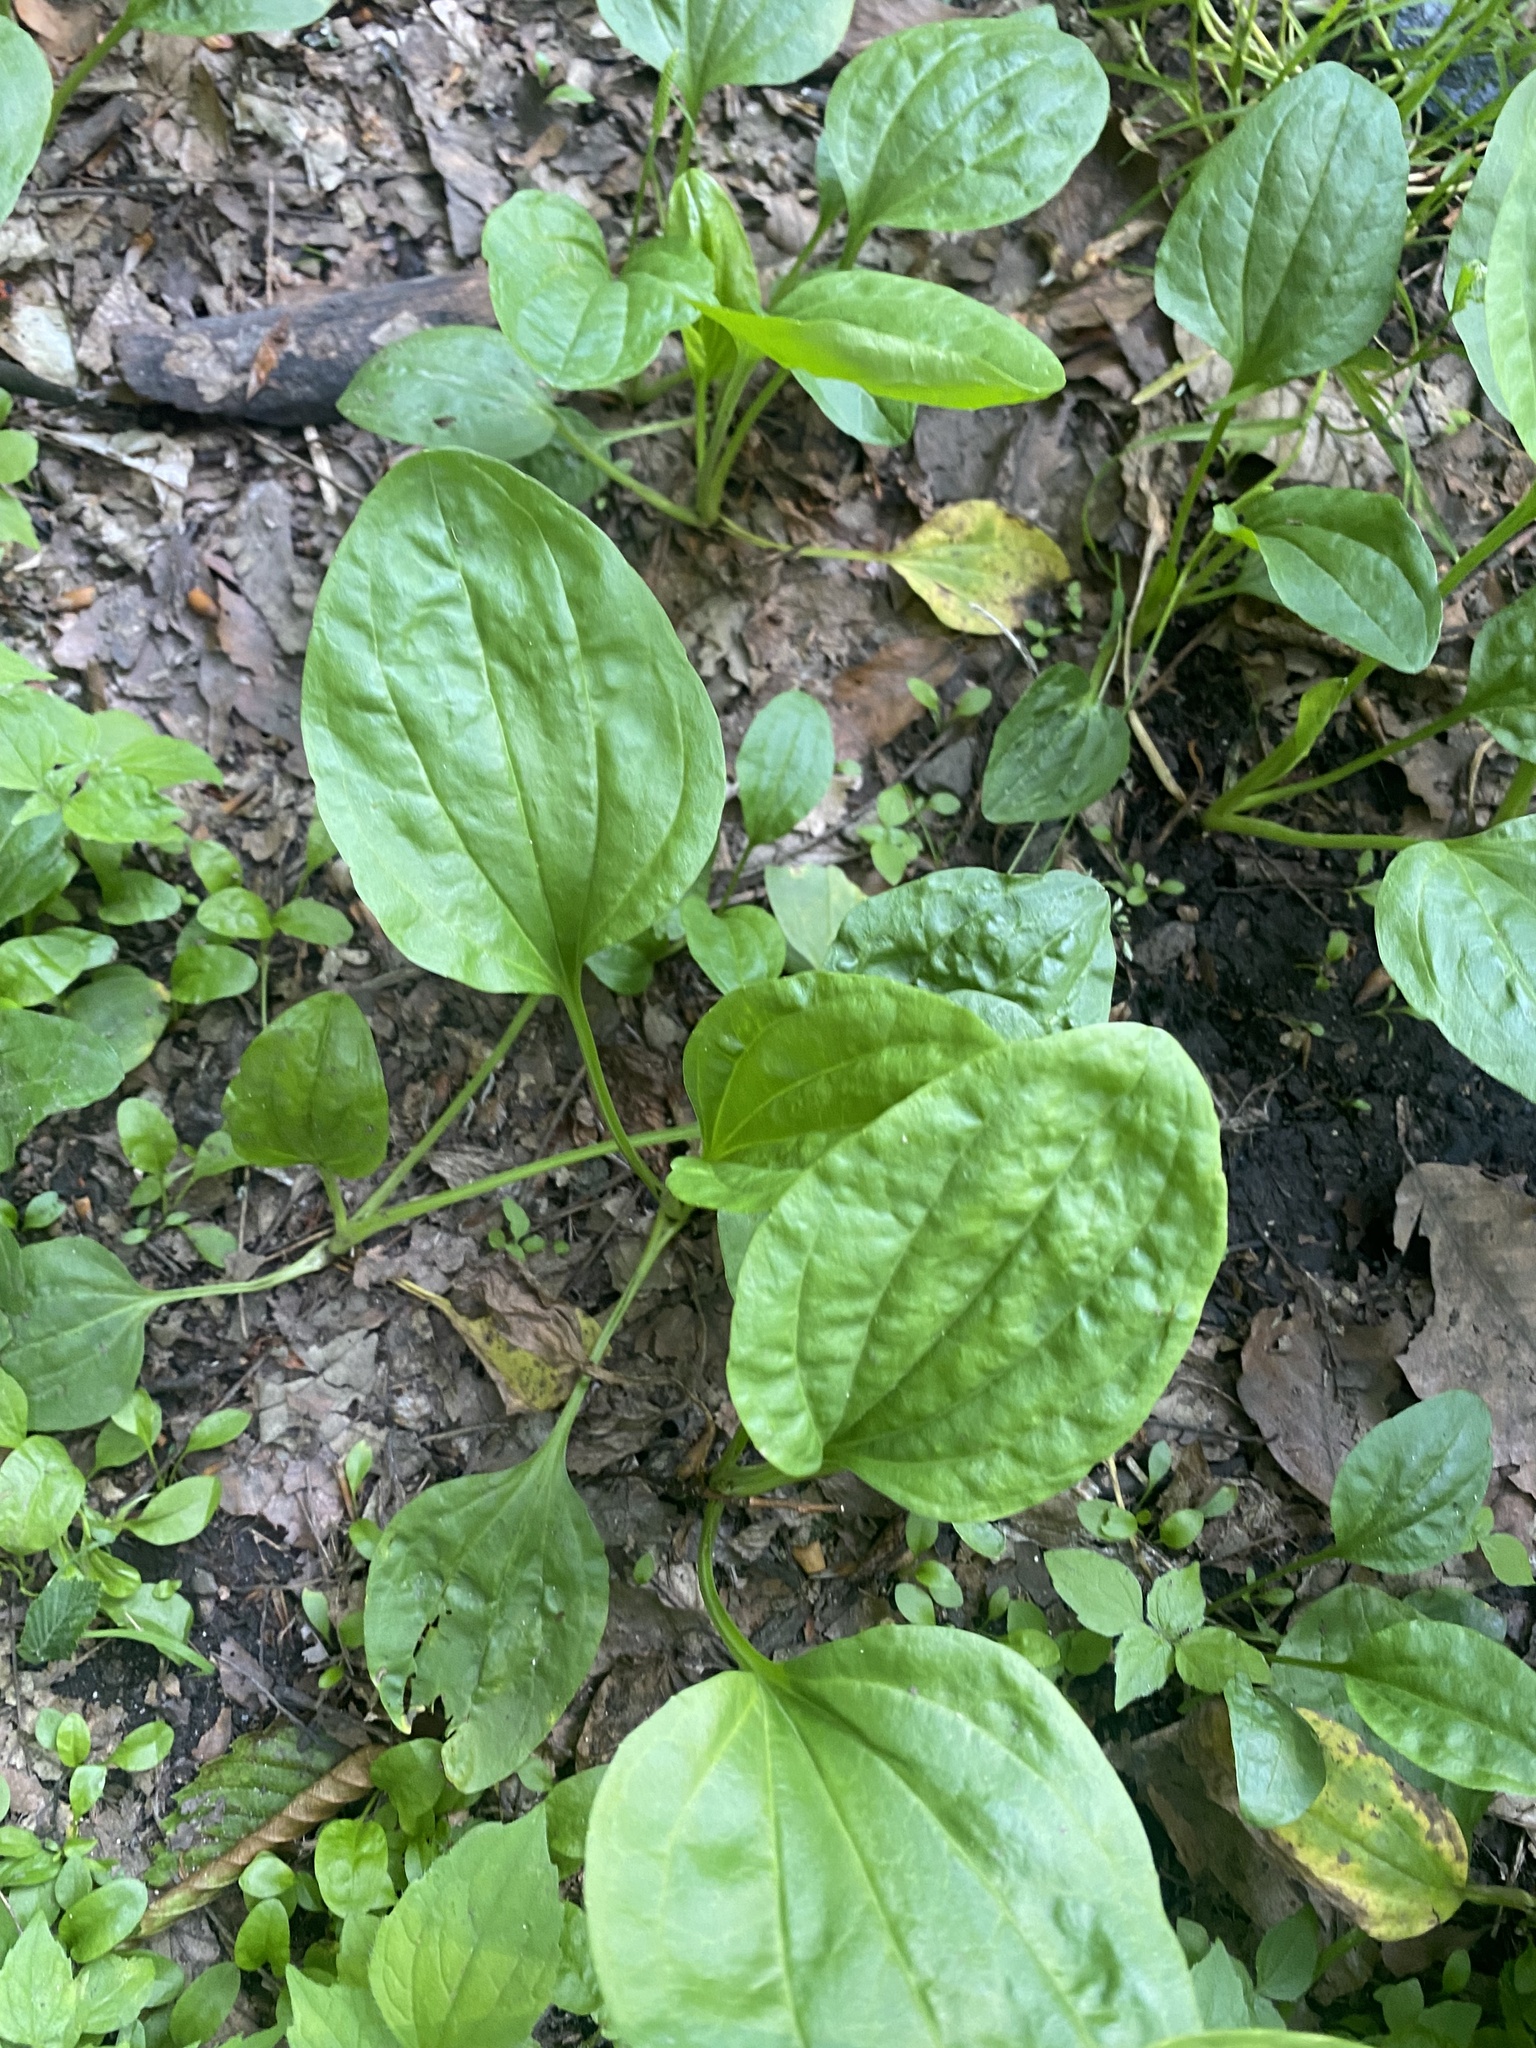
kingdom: Plantae
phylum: Tracheophyta
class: Magnoliopsida
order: Lamiales
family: Plantaginaceae
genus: Plantago
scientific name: Plantago major
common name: Common plantain
